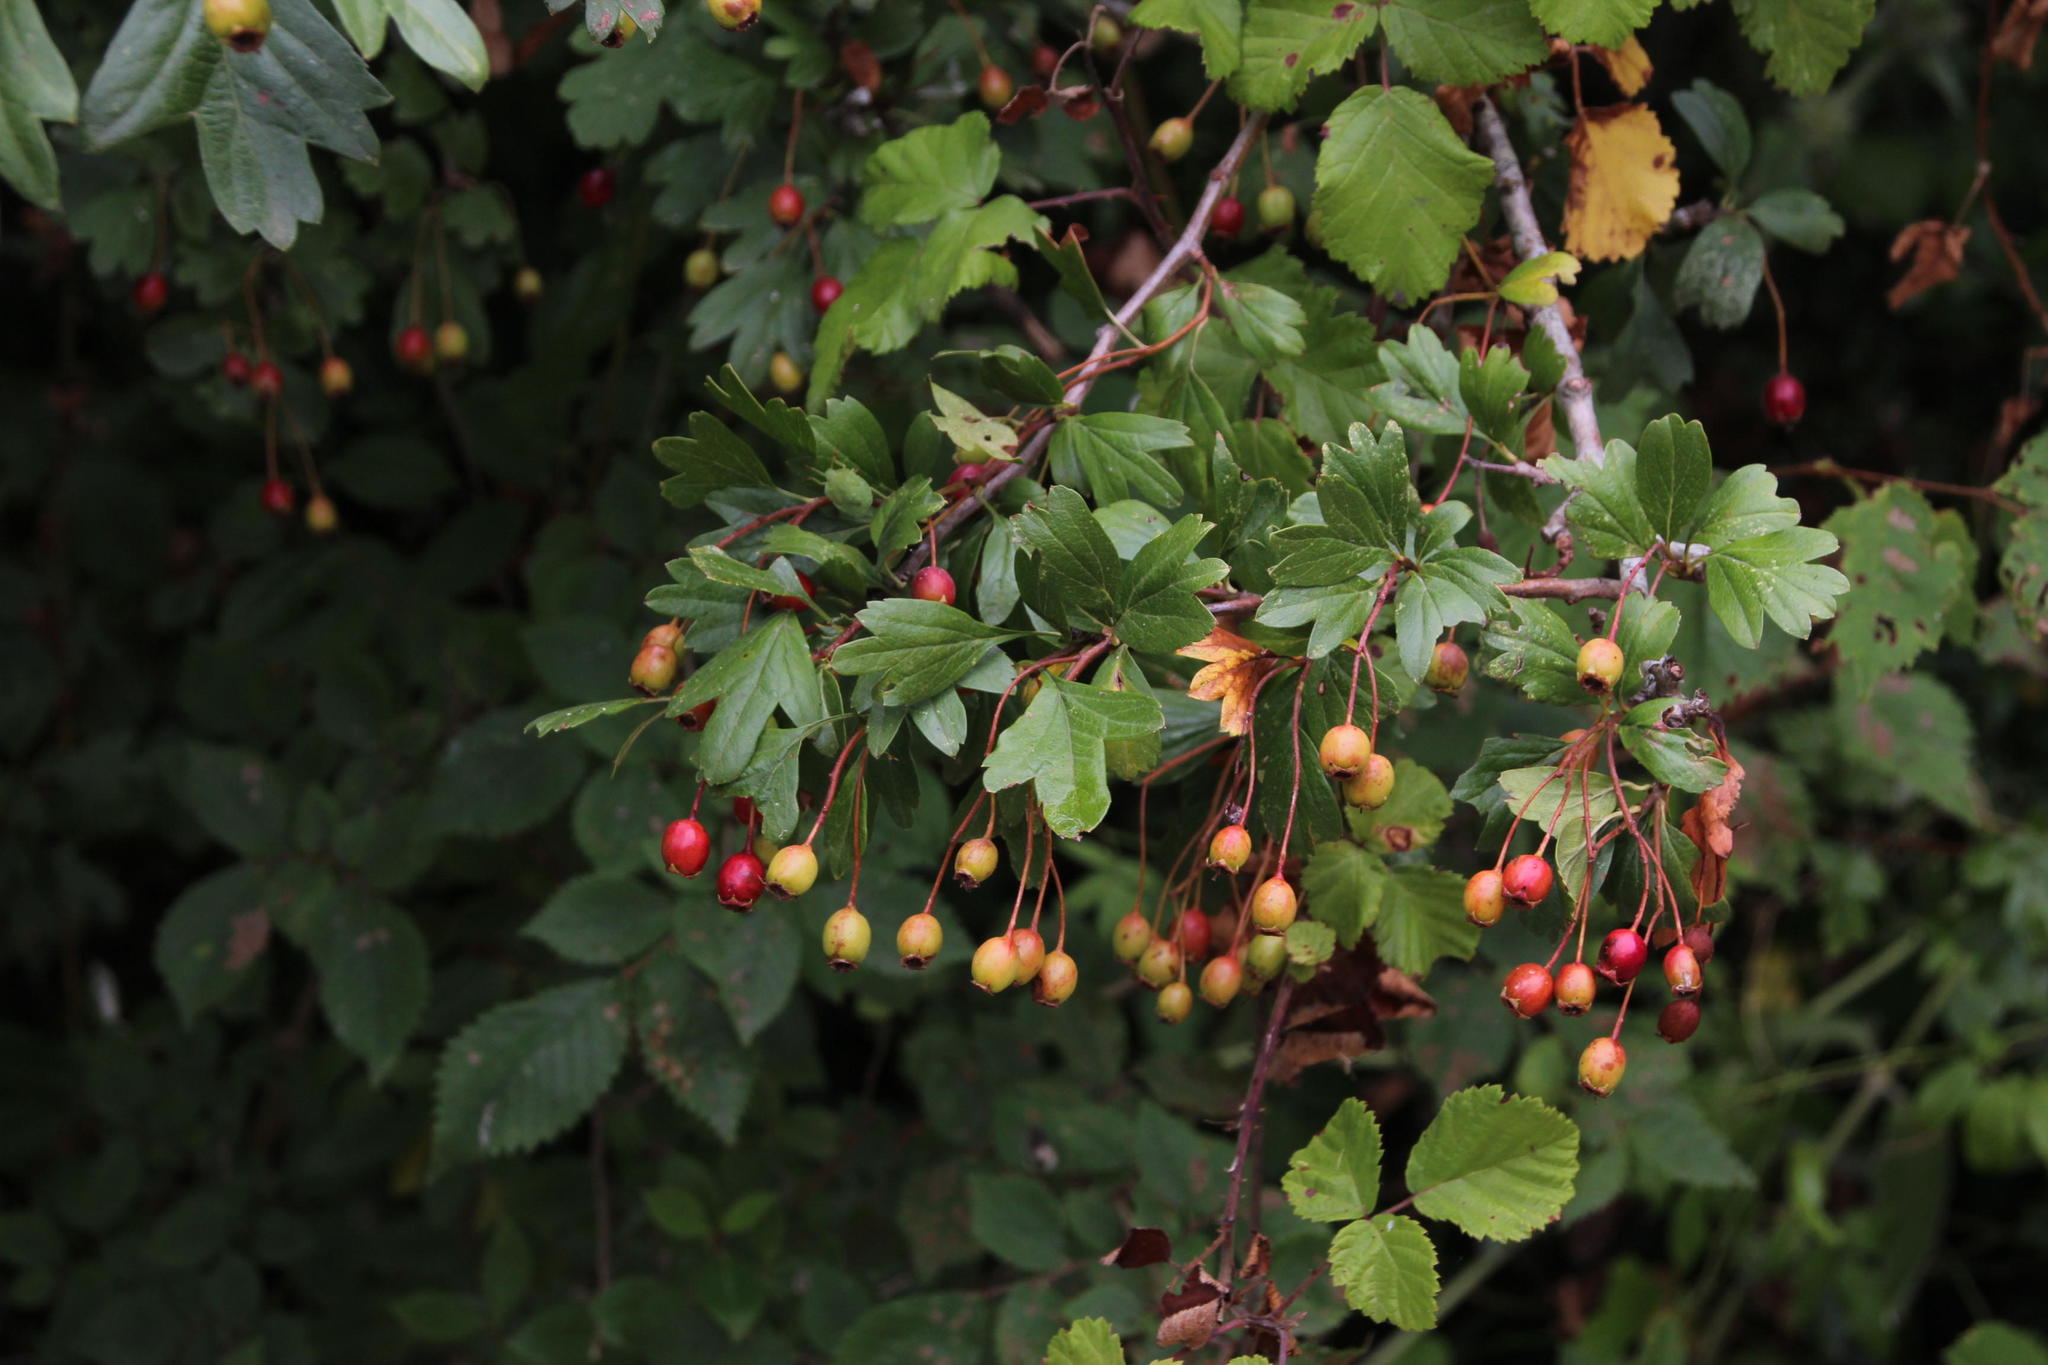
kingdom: Plantae
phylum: Tracheophyta
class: Magnoliopsida
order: Rosales
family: Rosaceae
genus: Crataegus
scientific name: Crataegus monogyna
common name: Hawthorn
